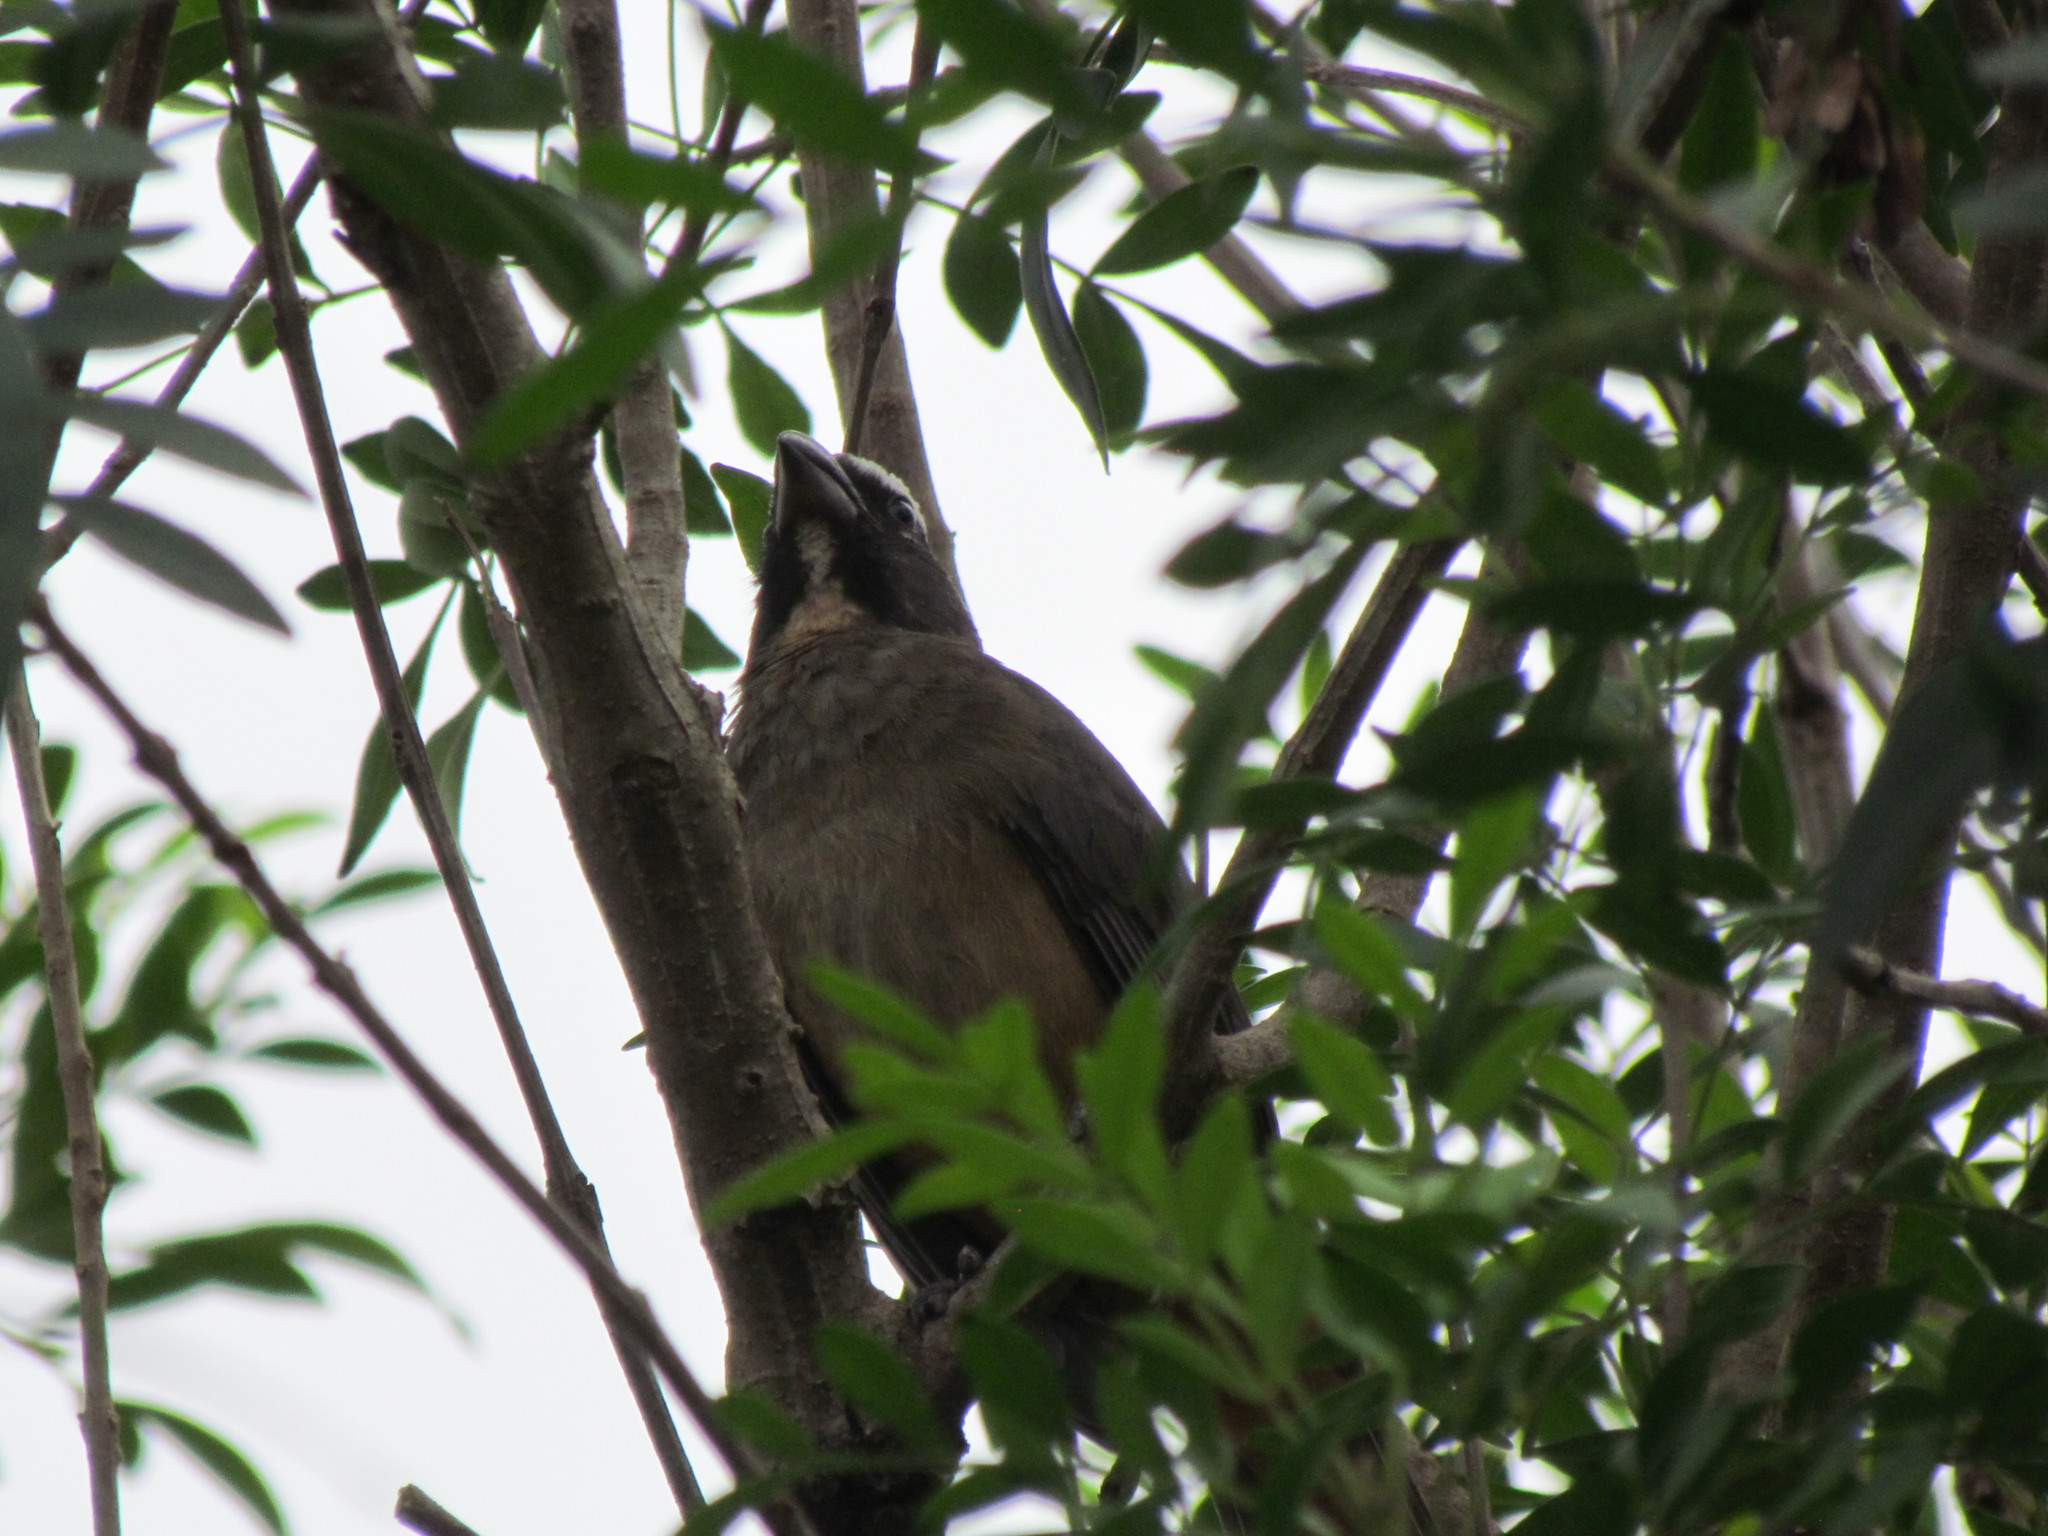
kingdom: Animalia
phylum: Chordata
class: Aves
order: Passeriformes
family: Thraupidae
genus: Saltator
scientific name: Saltator grandis
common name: Cinnamon-bellied saltator
